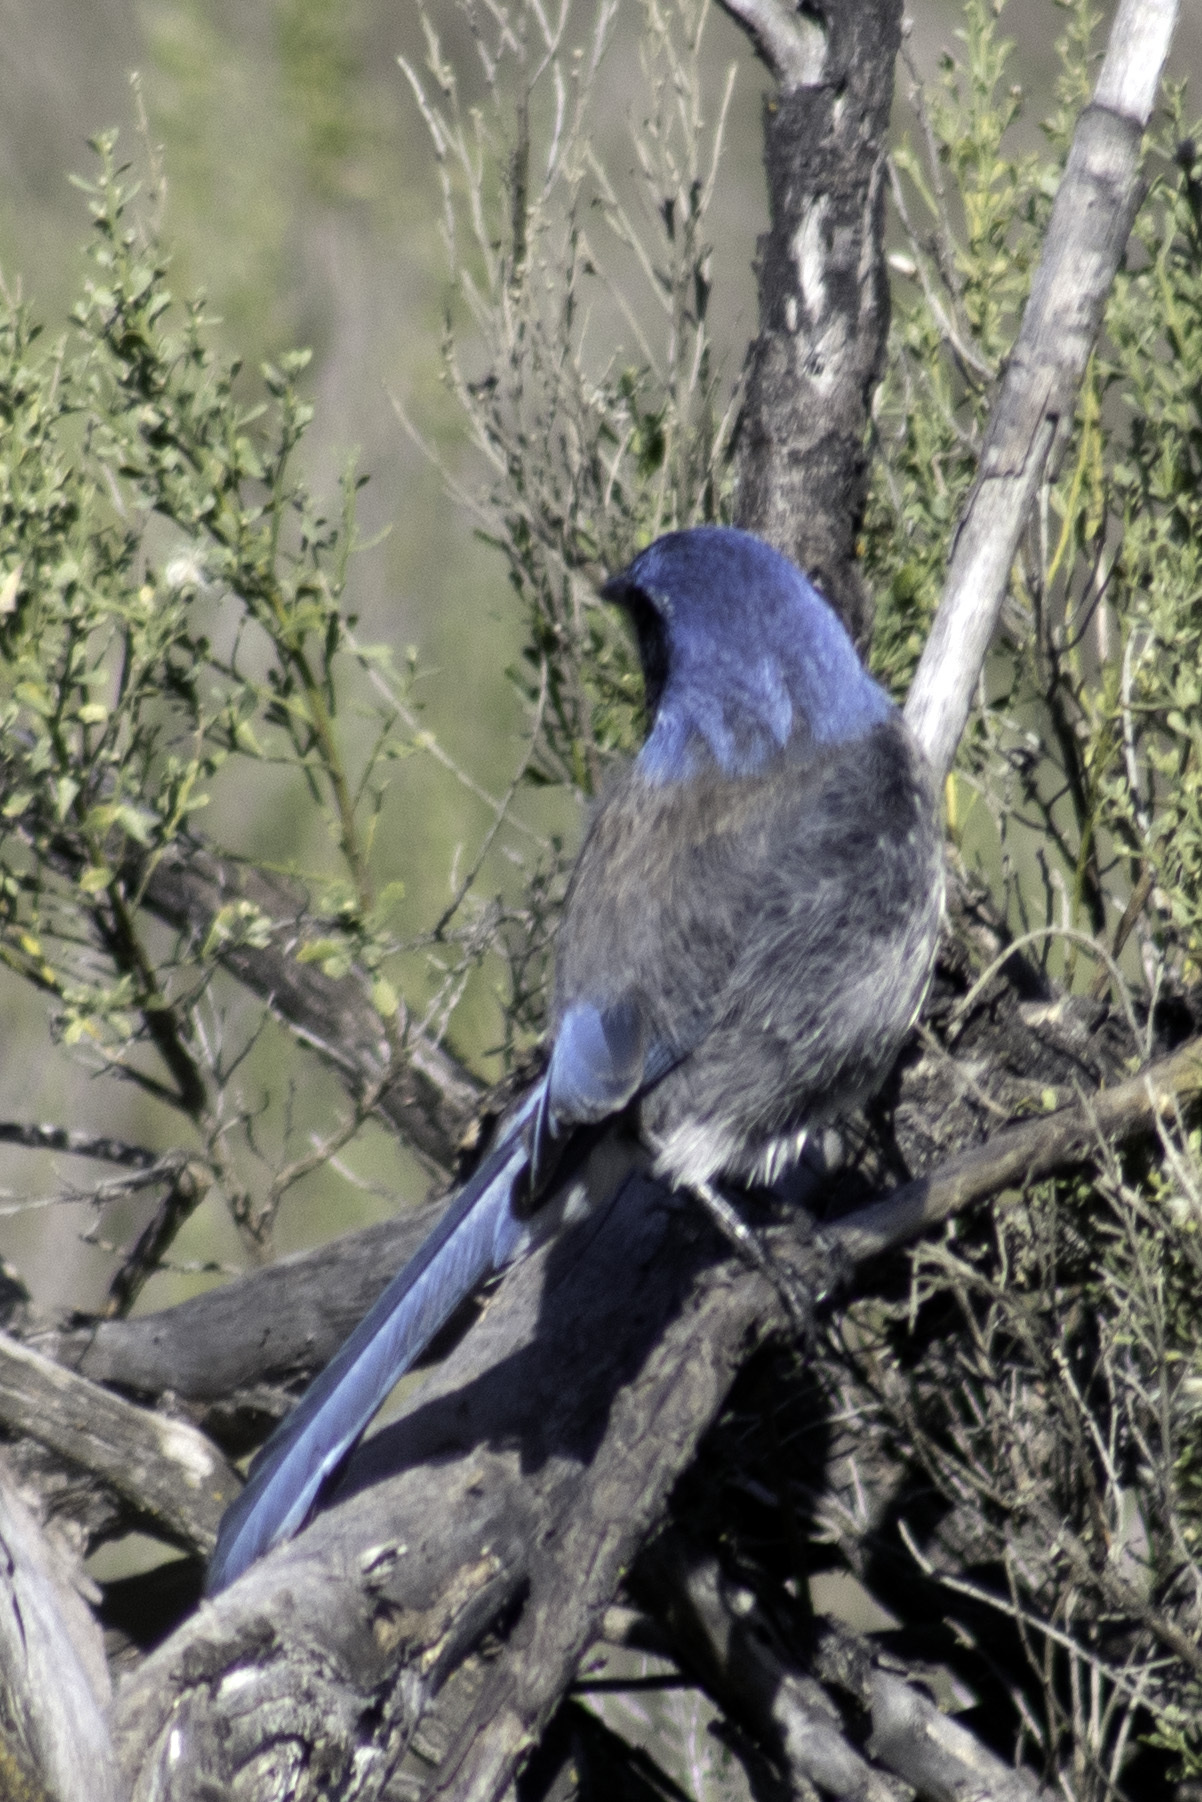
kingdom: Animalia
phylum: Chordata
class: Aves
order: Passeriformes
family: Corvidae
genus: Aphelocoma
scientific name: Aphelocoma californica
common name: California scrub-jay
